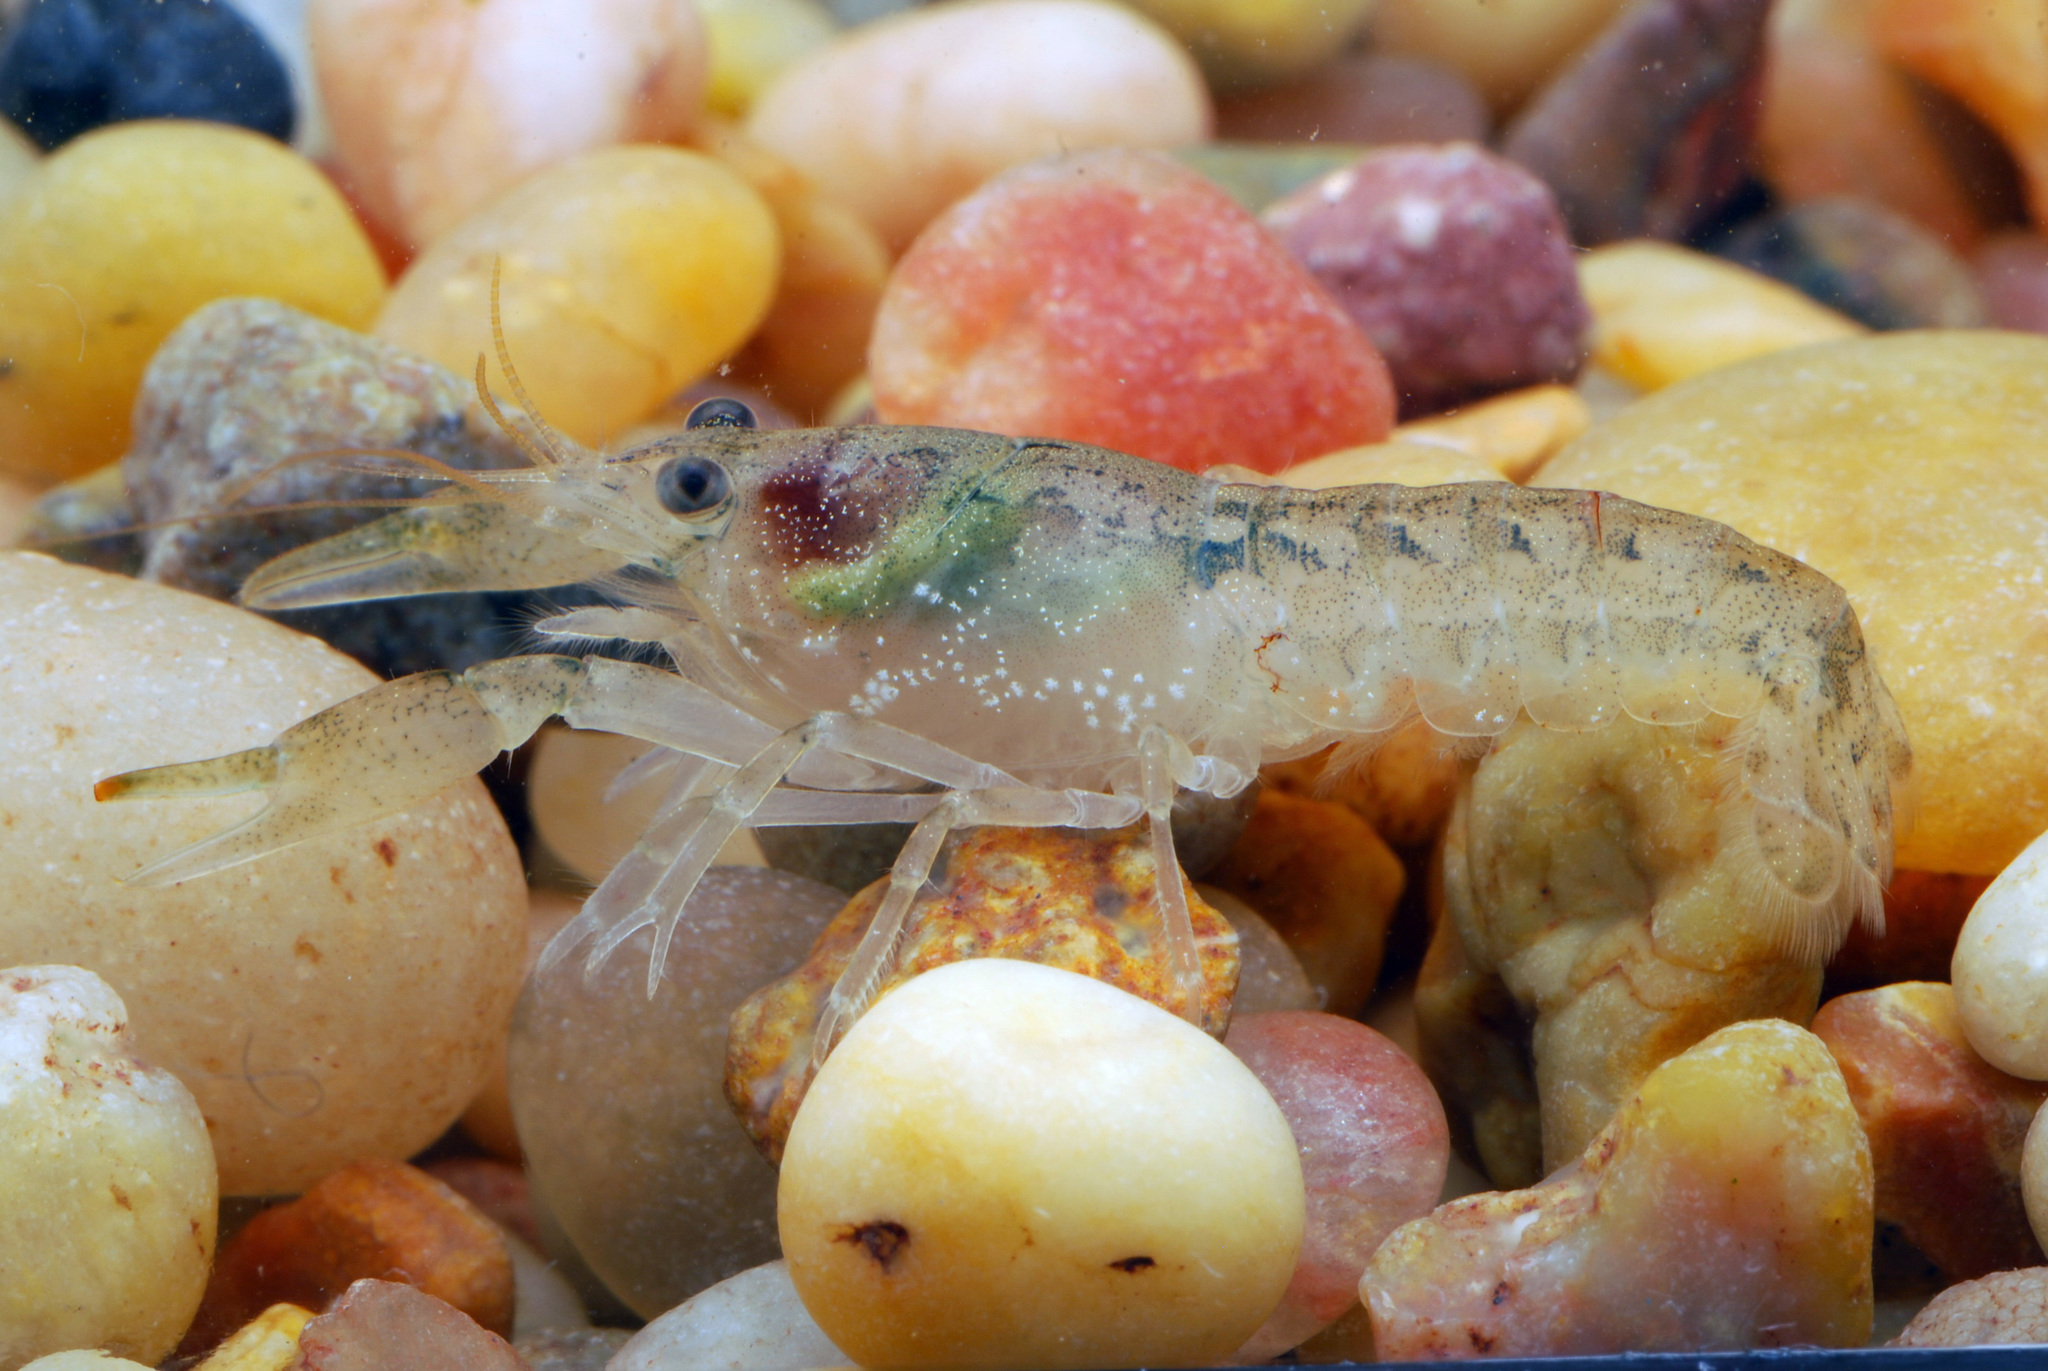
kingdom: Animalia
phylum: Arthropoda
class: Malacostraca
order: Decapoda
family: Cambaridae
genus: Cambarellus
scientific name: Cambarellus texanus
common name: Brazos dwarf crayfish
